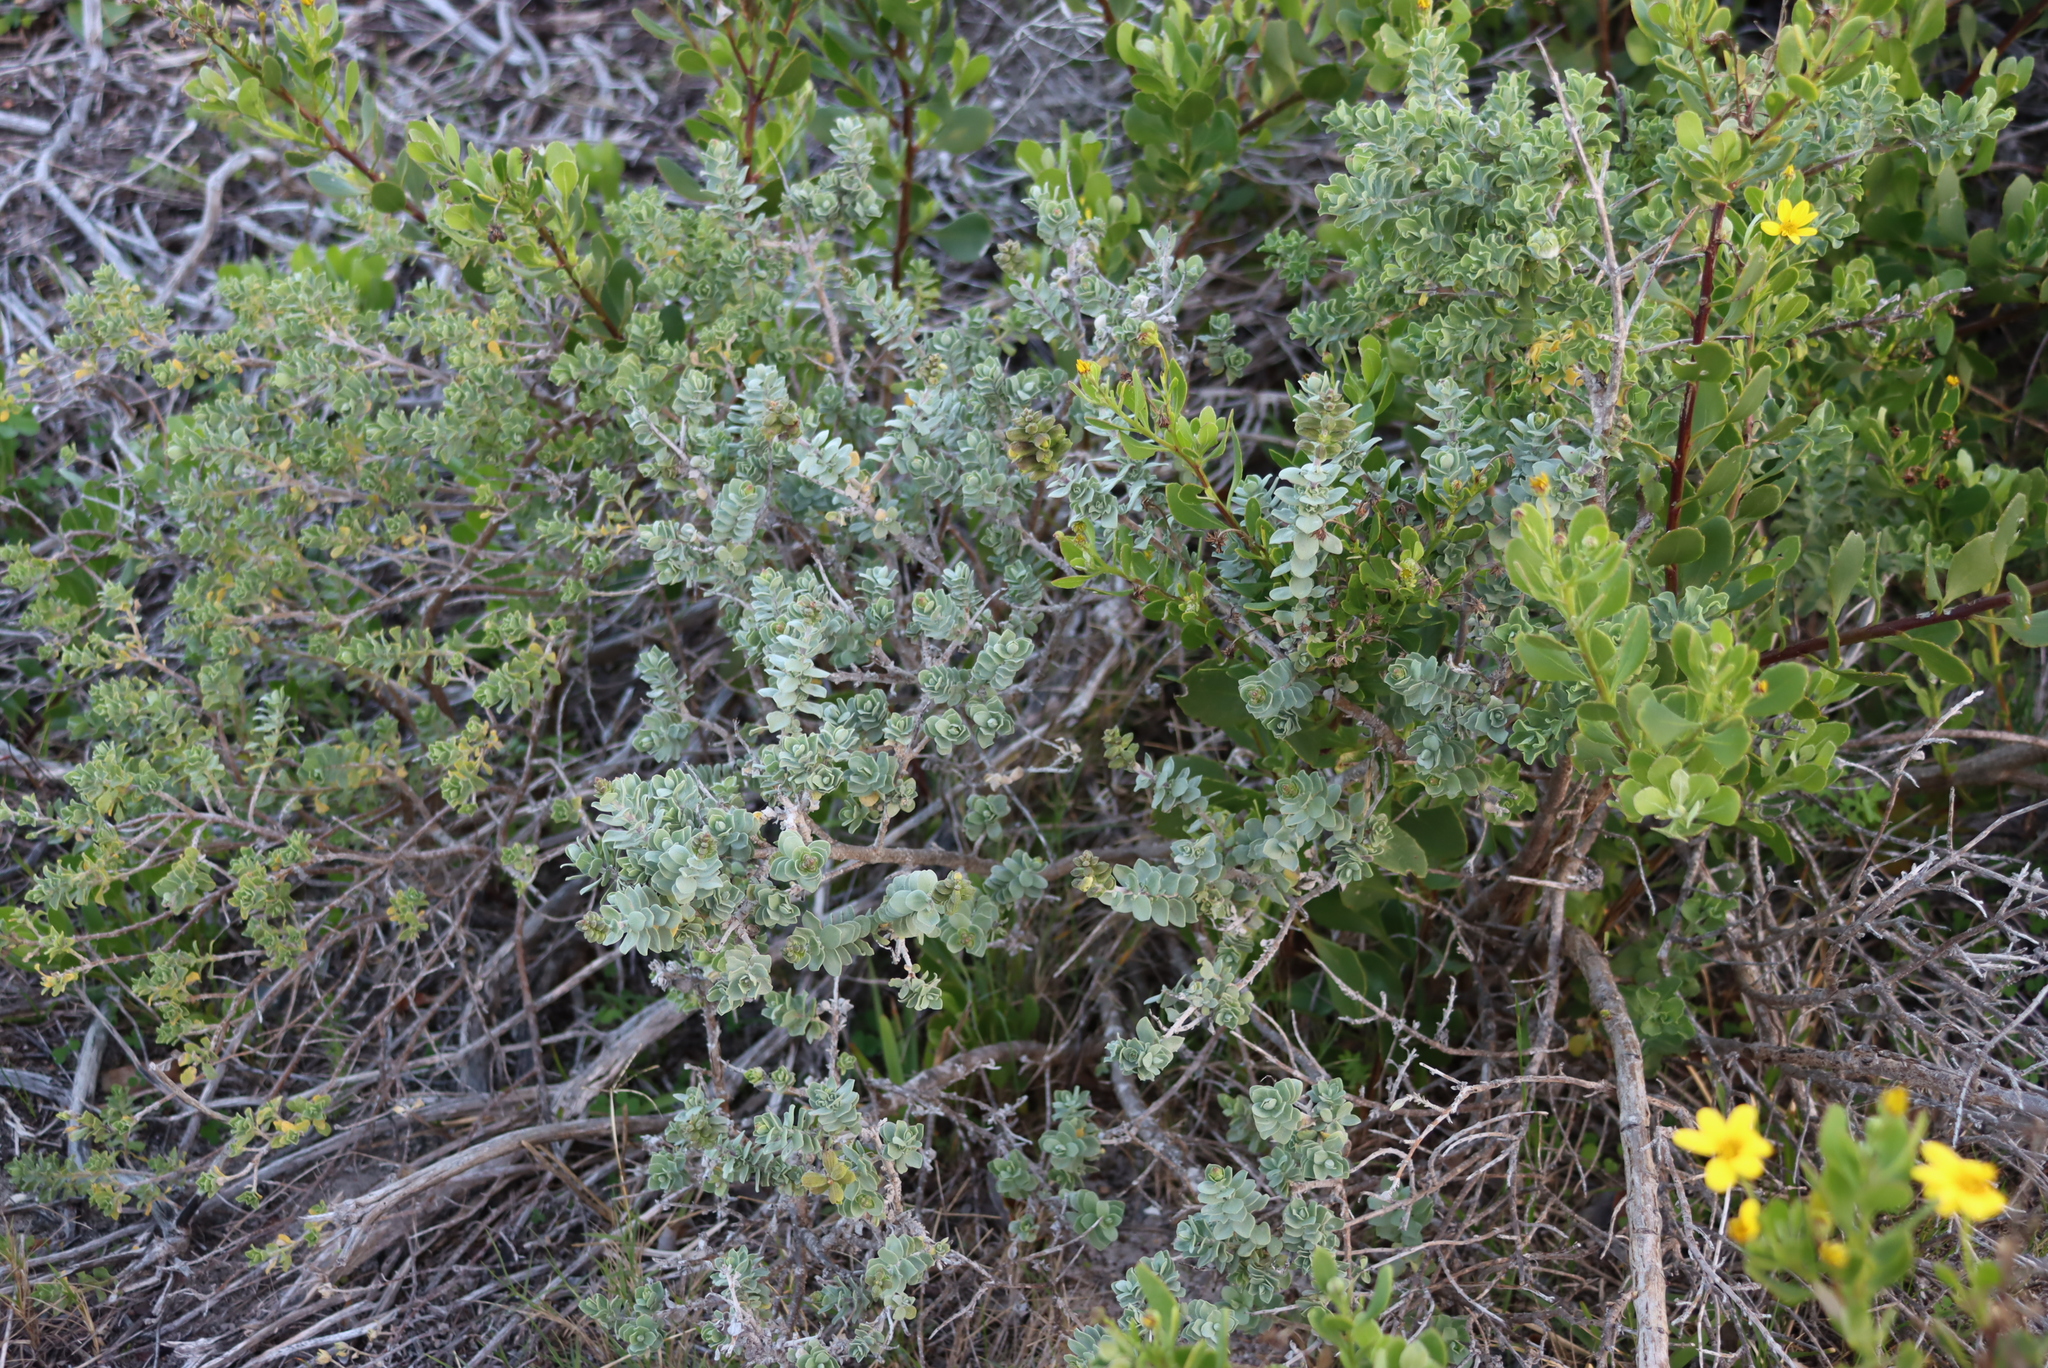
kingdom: Plantae
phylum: Tracheophyta
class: Magnoliopsida
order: Lamiales
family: Lamiaceae
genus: Salvia
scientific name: Salvia aurea
